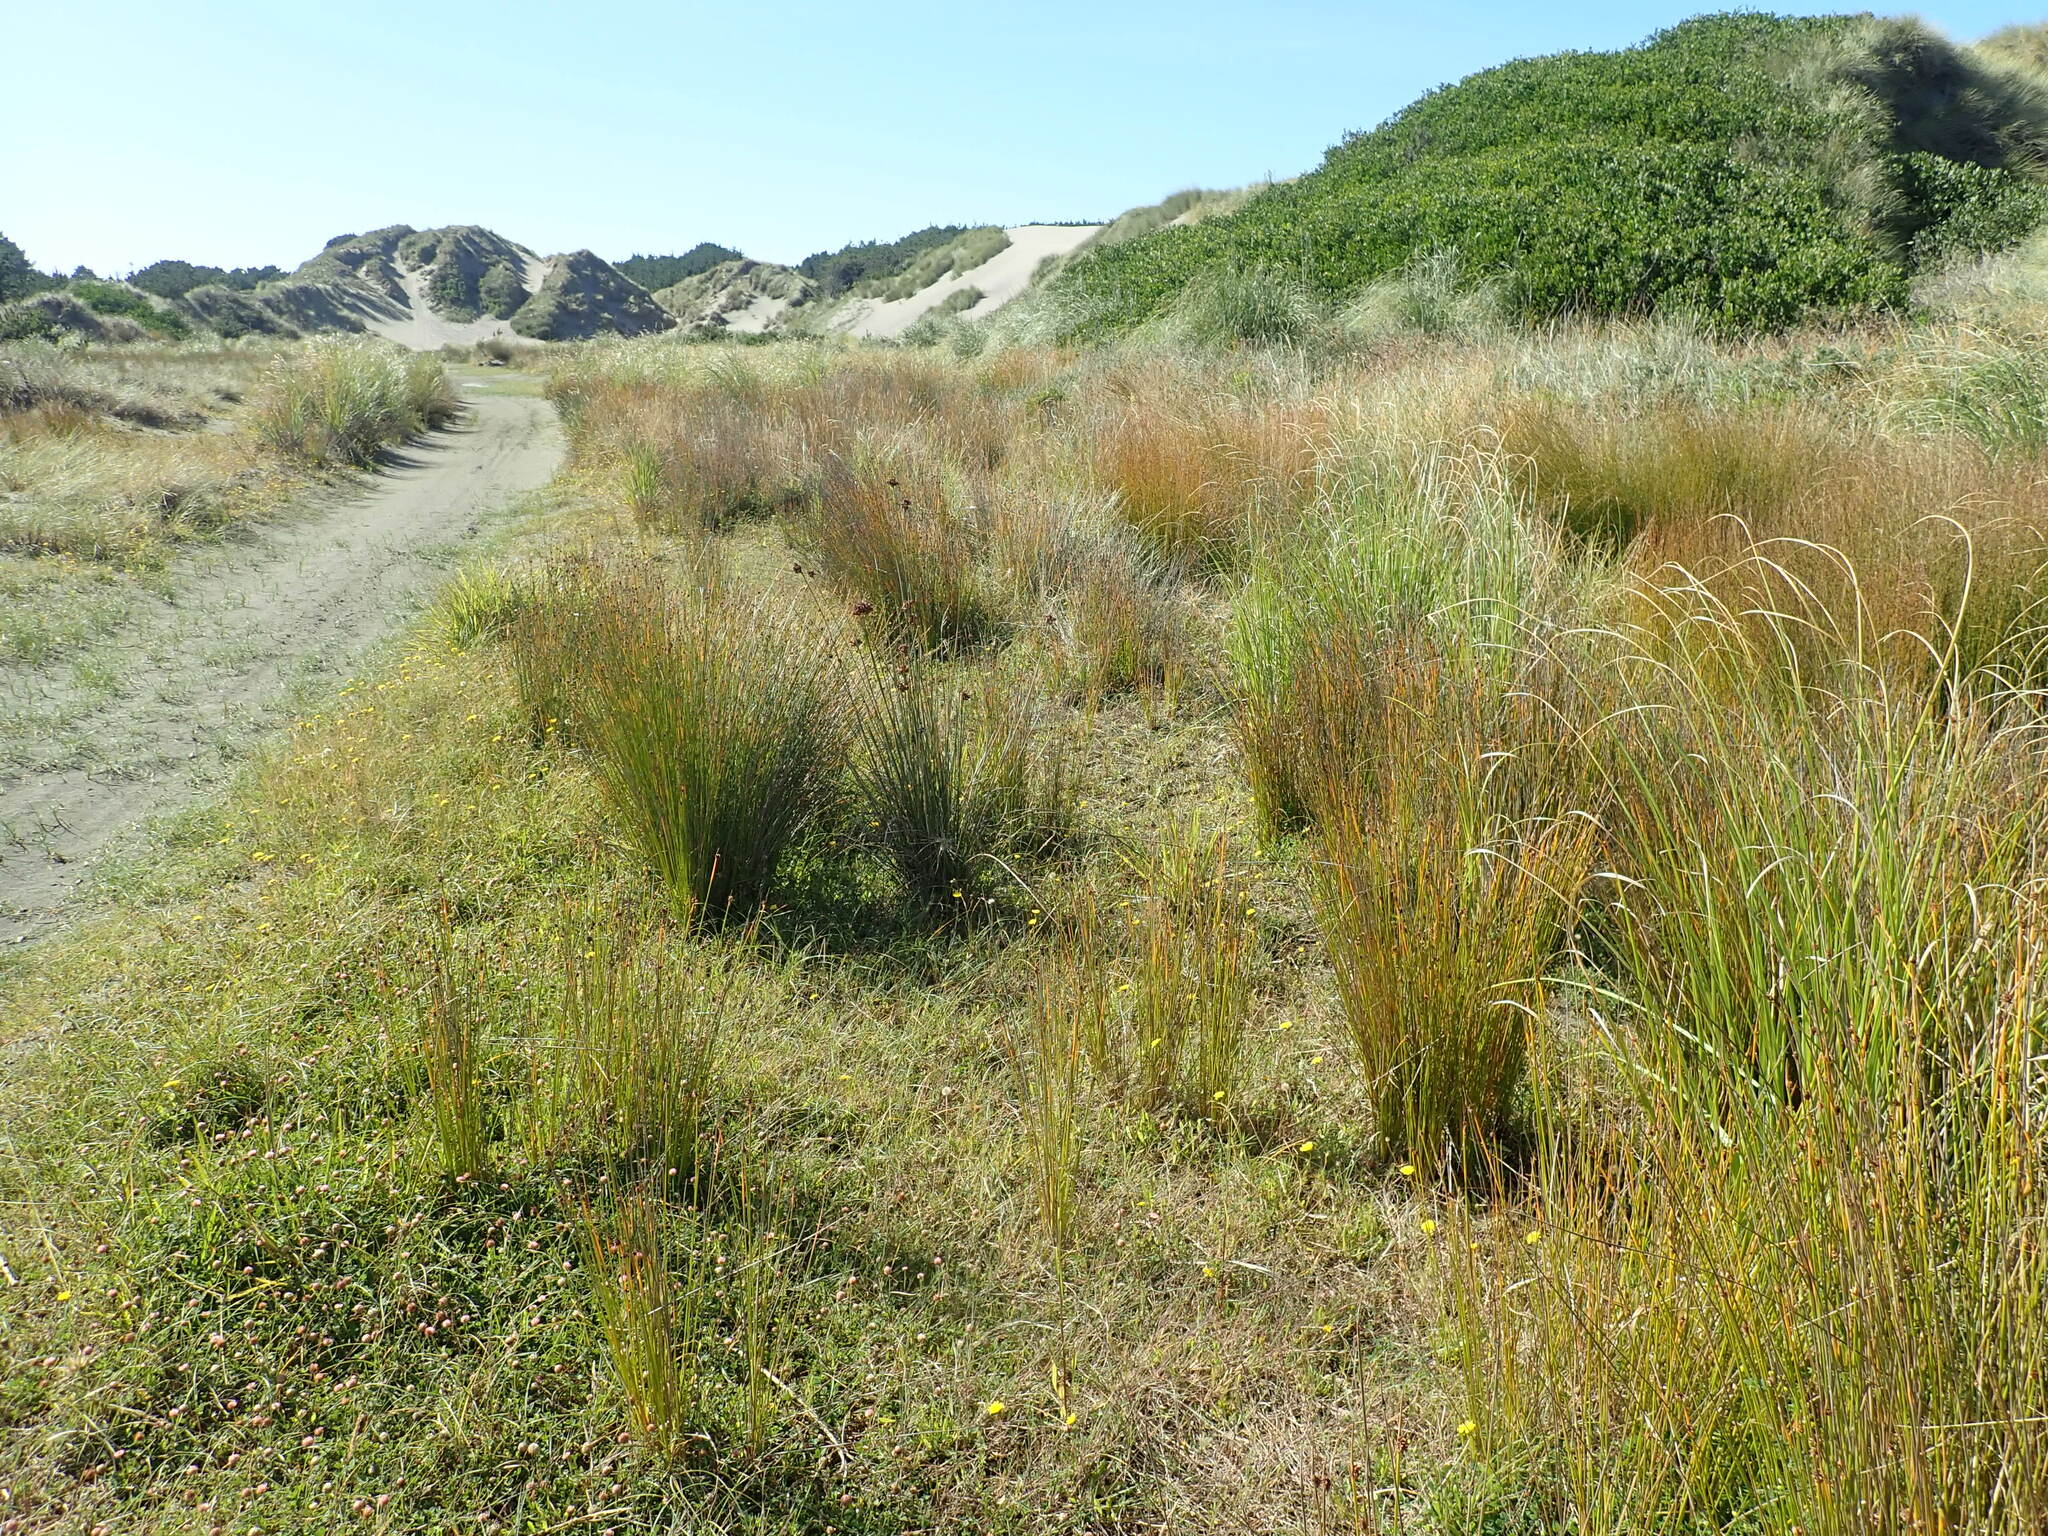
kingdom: Plantae
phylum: Tracheophyta
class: Liliopsida
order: Poales
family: Cyperaceae
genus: Ficinia
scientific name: Ficinia nodosa
